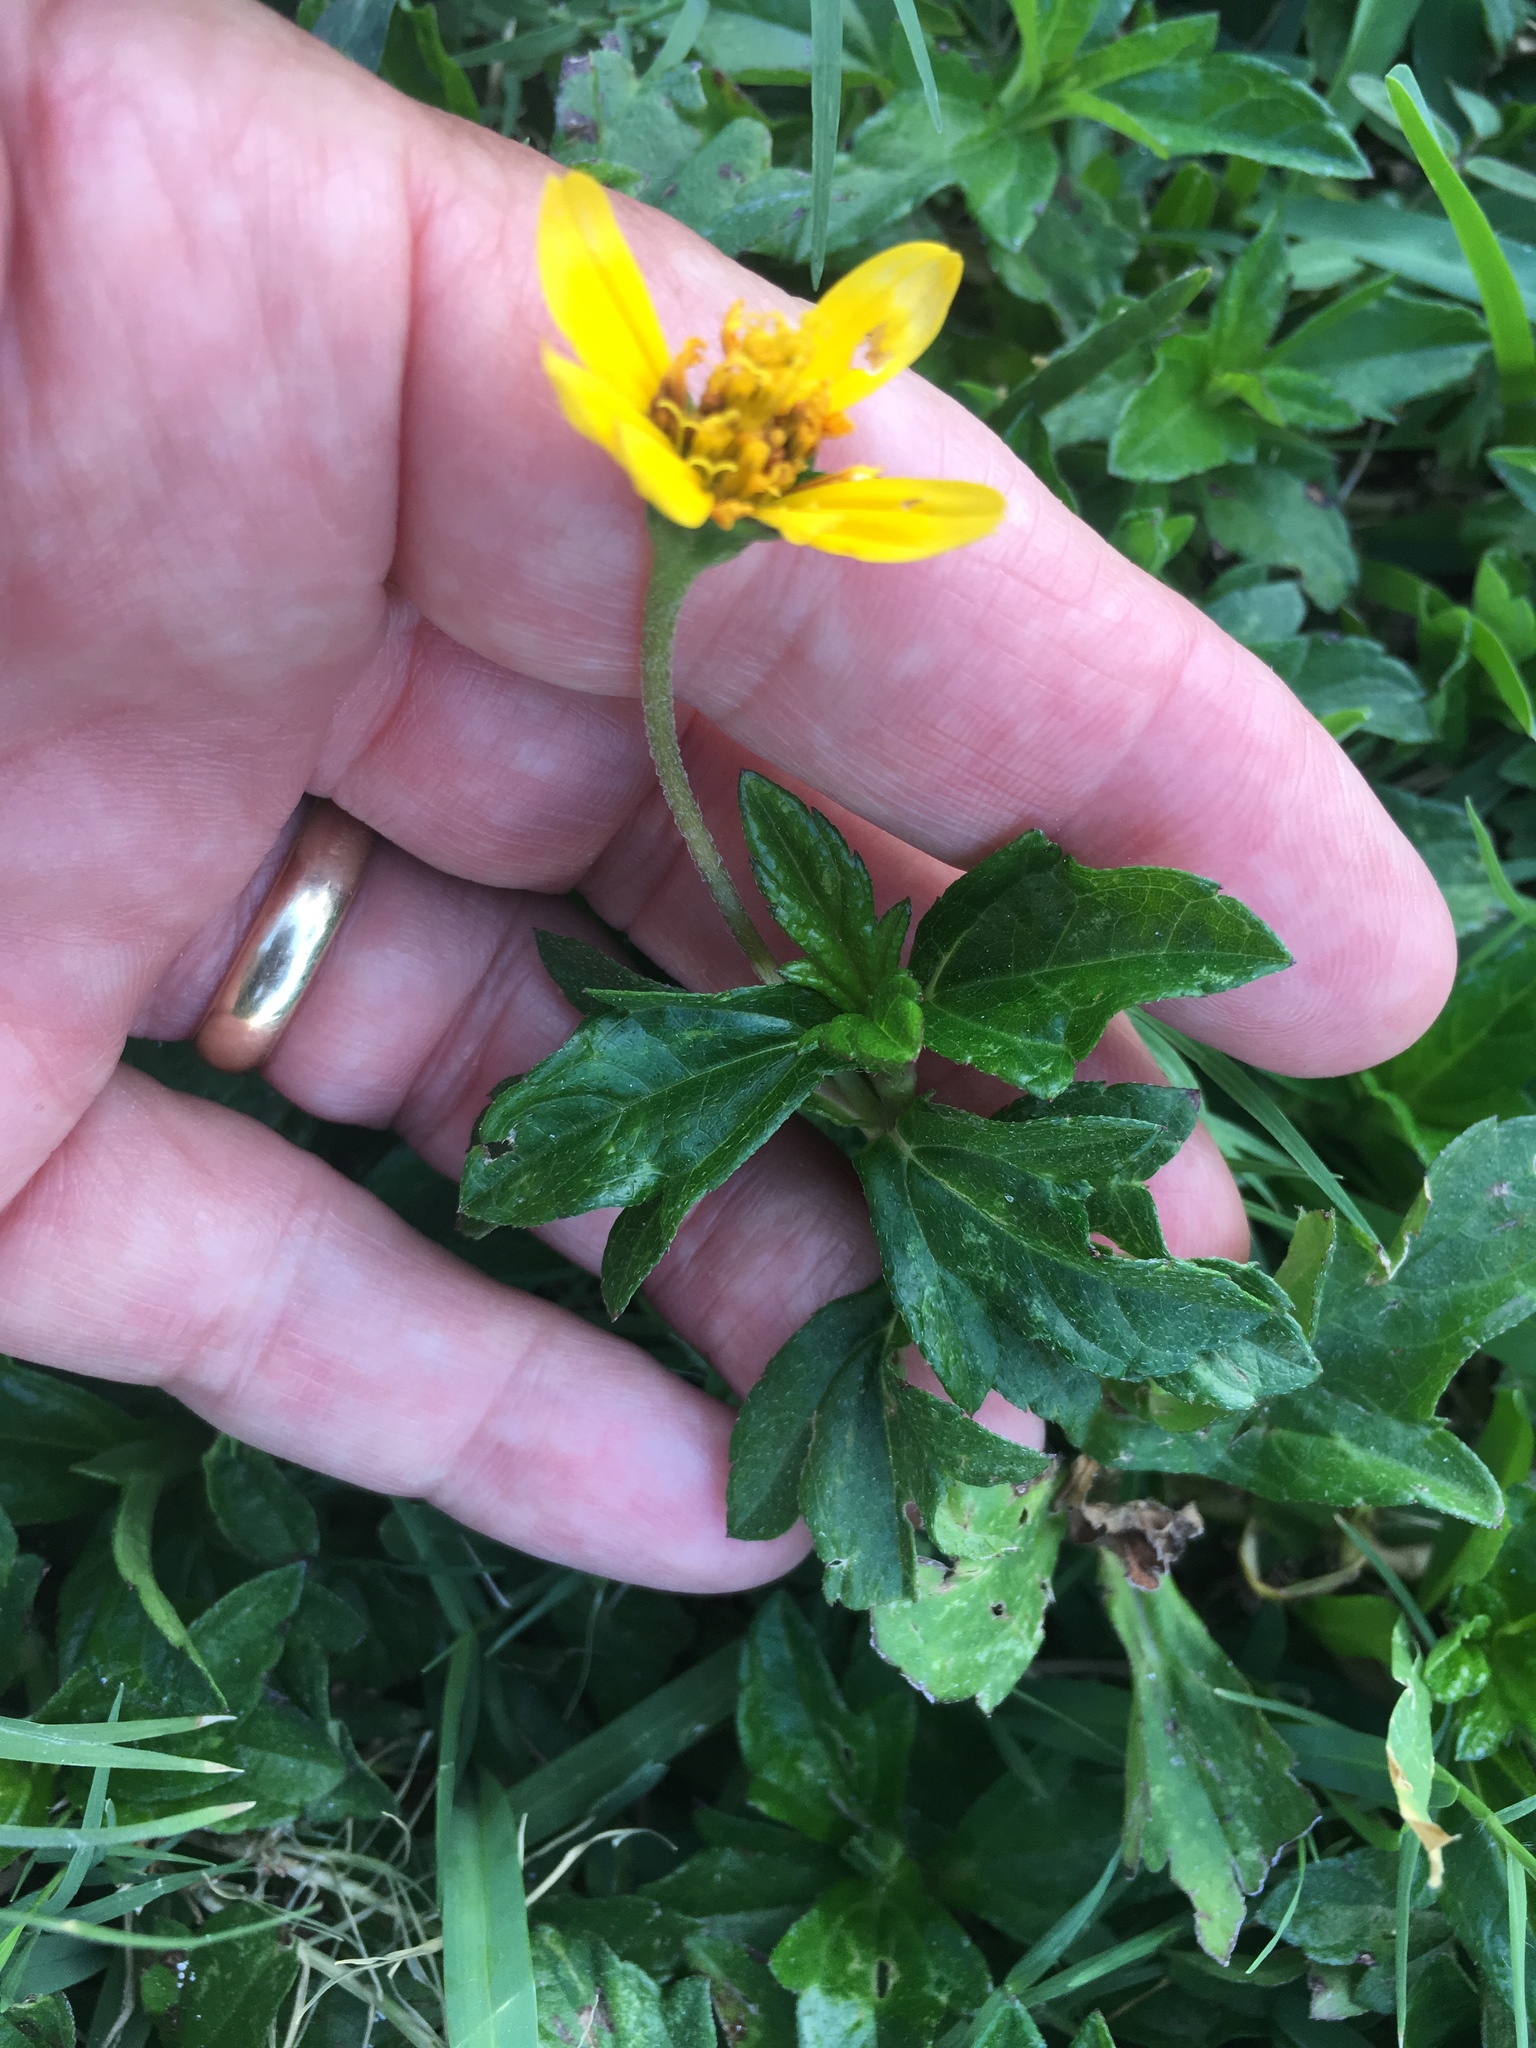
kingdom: Plantae
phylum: Tracheophyta
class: Magnoliopsida
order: Asterales
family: Asteraceae
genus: Sphagneticola
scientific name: Sphagneticola trilobata
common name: Bay biscayne creeping-oxeye
